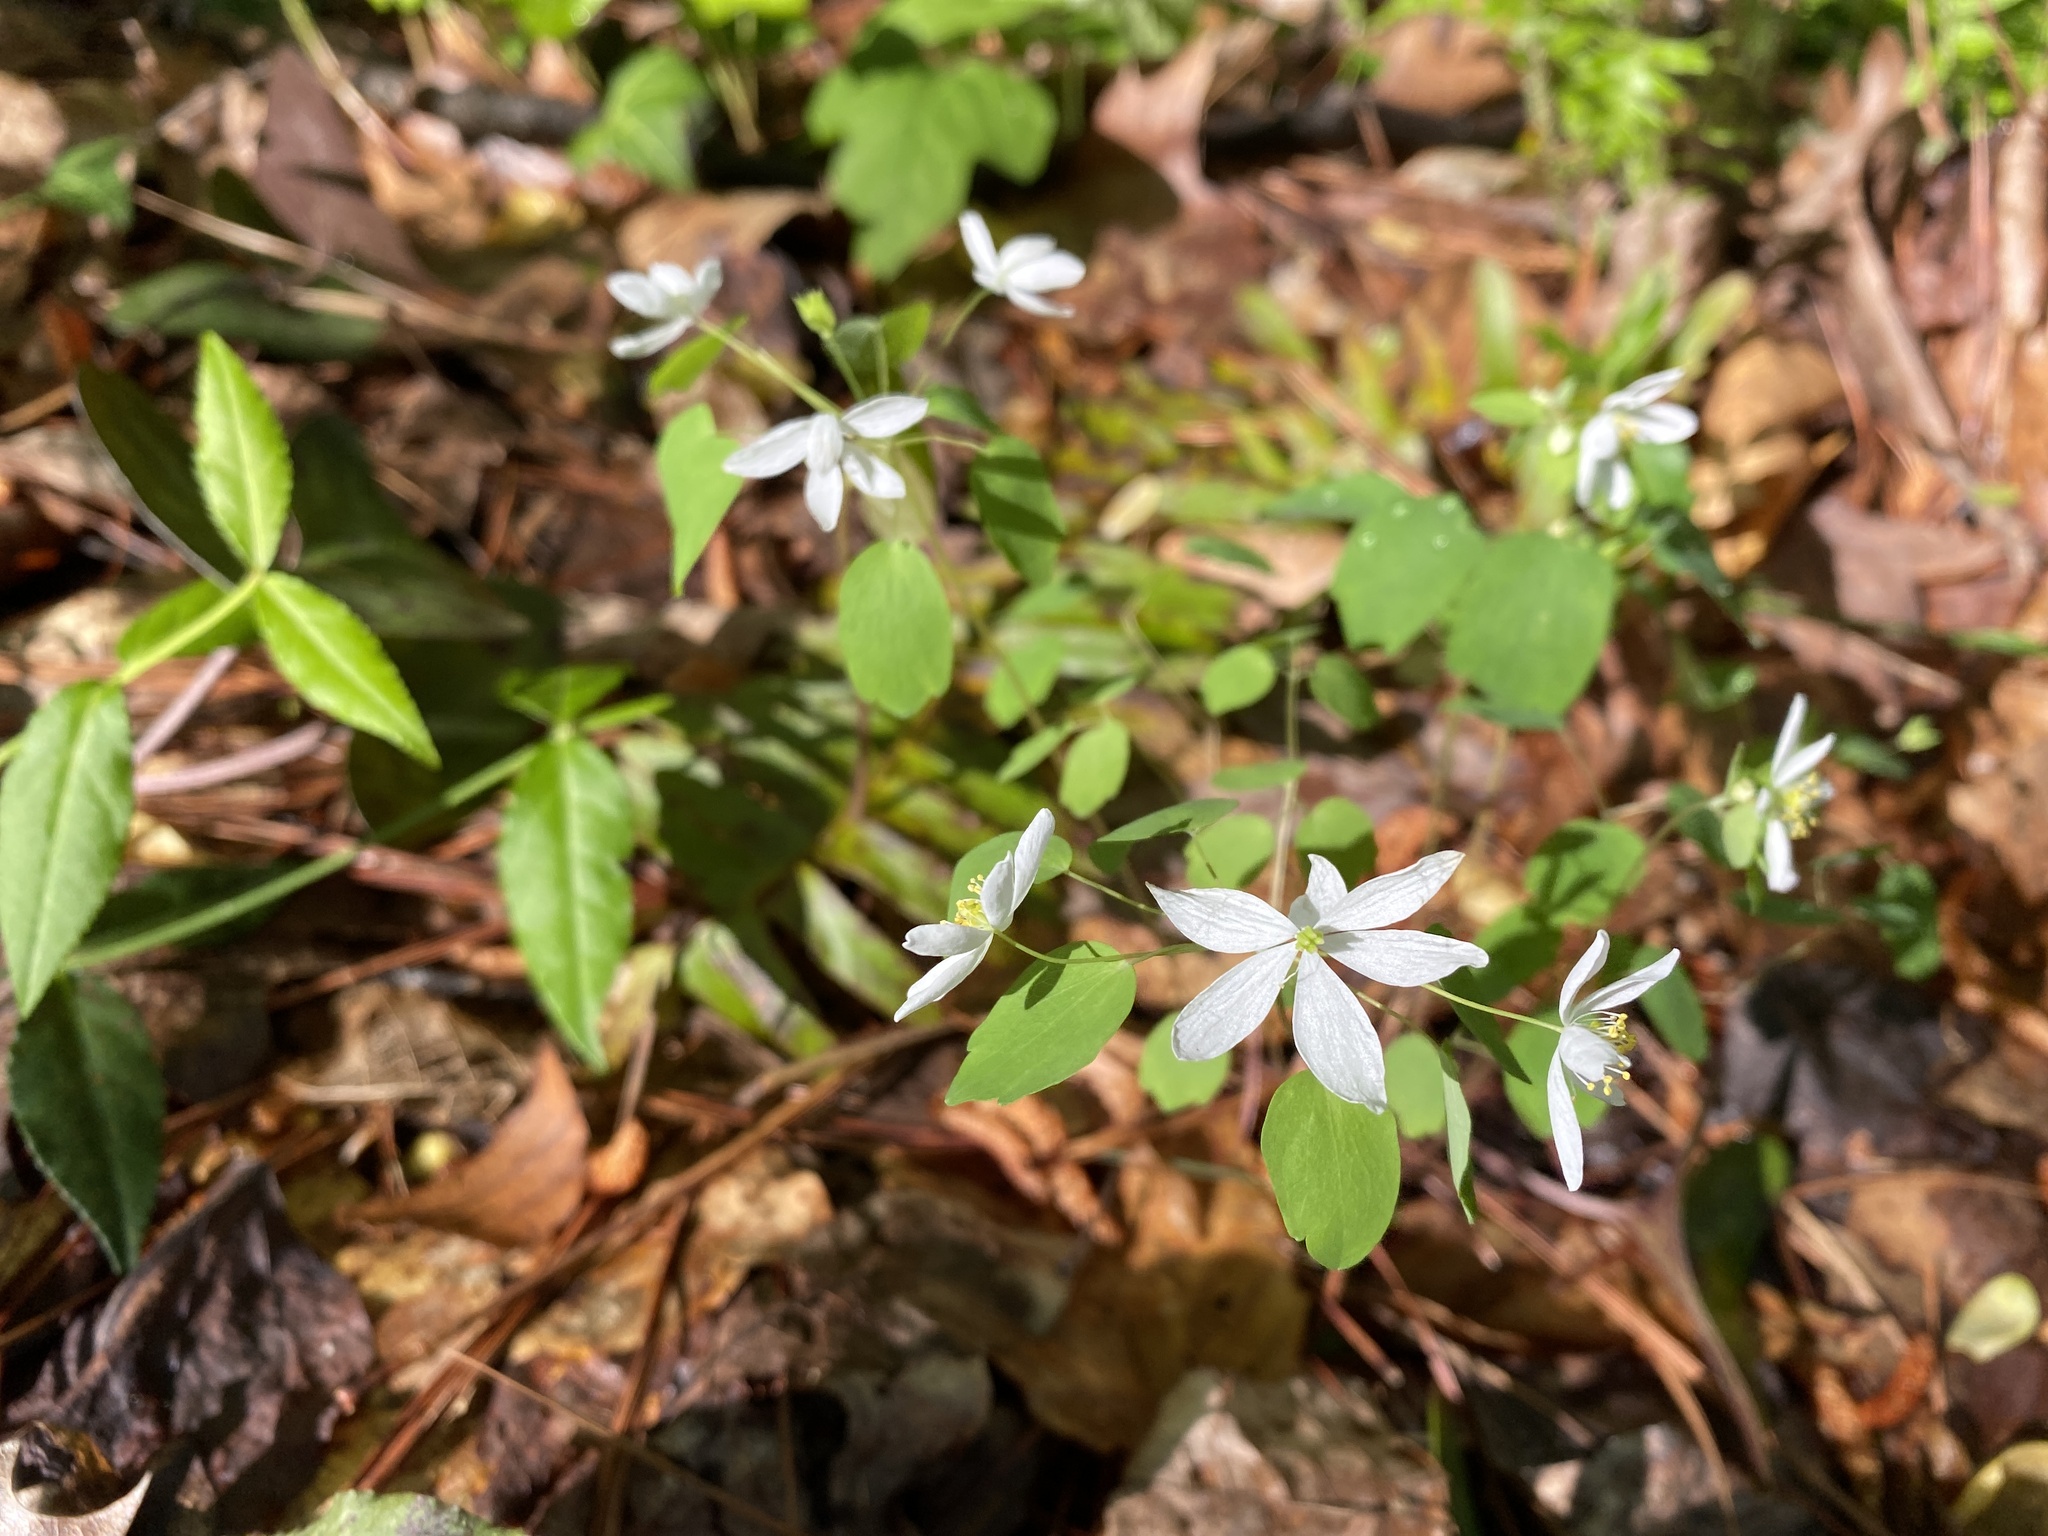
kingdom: Plantae
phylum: Tracheophyta
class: Magnoliopsida
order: Ranunculales
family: Ranunculaceae
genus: Thalictrum
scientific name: Thalictrum thalictroides
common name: Rue-anemone
